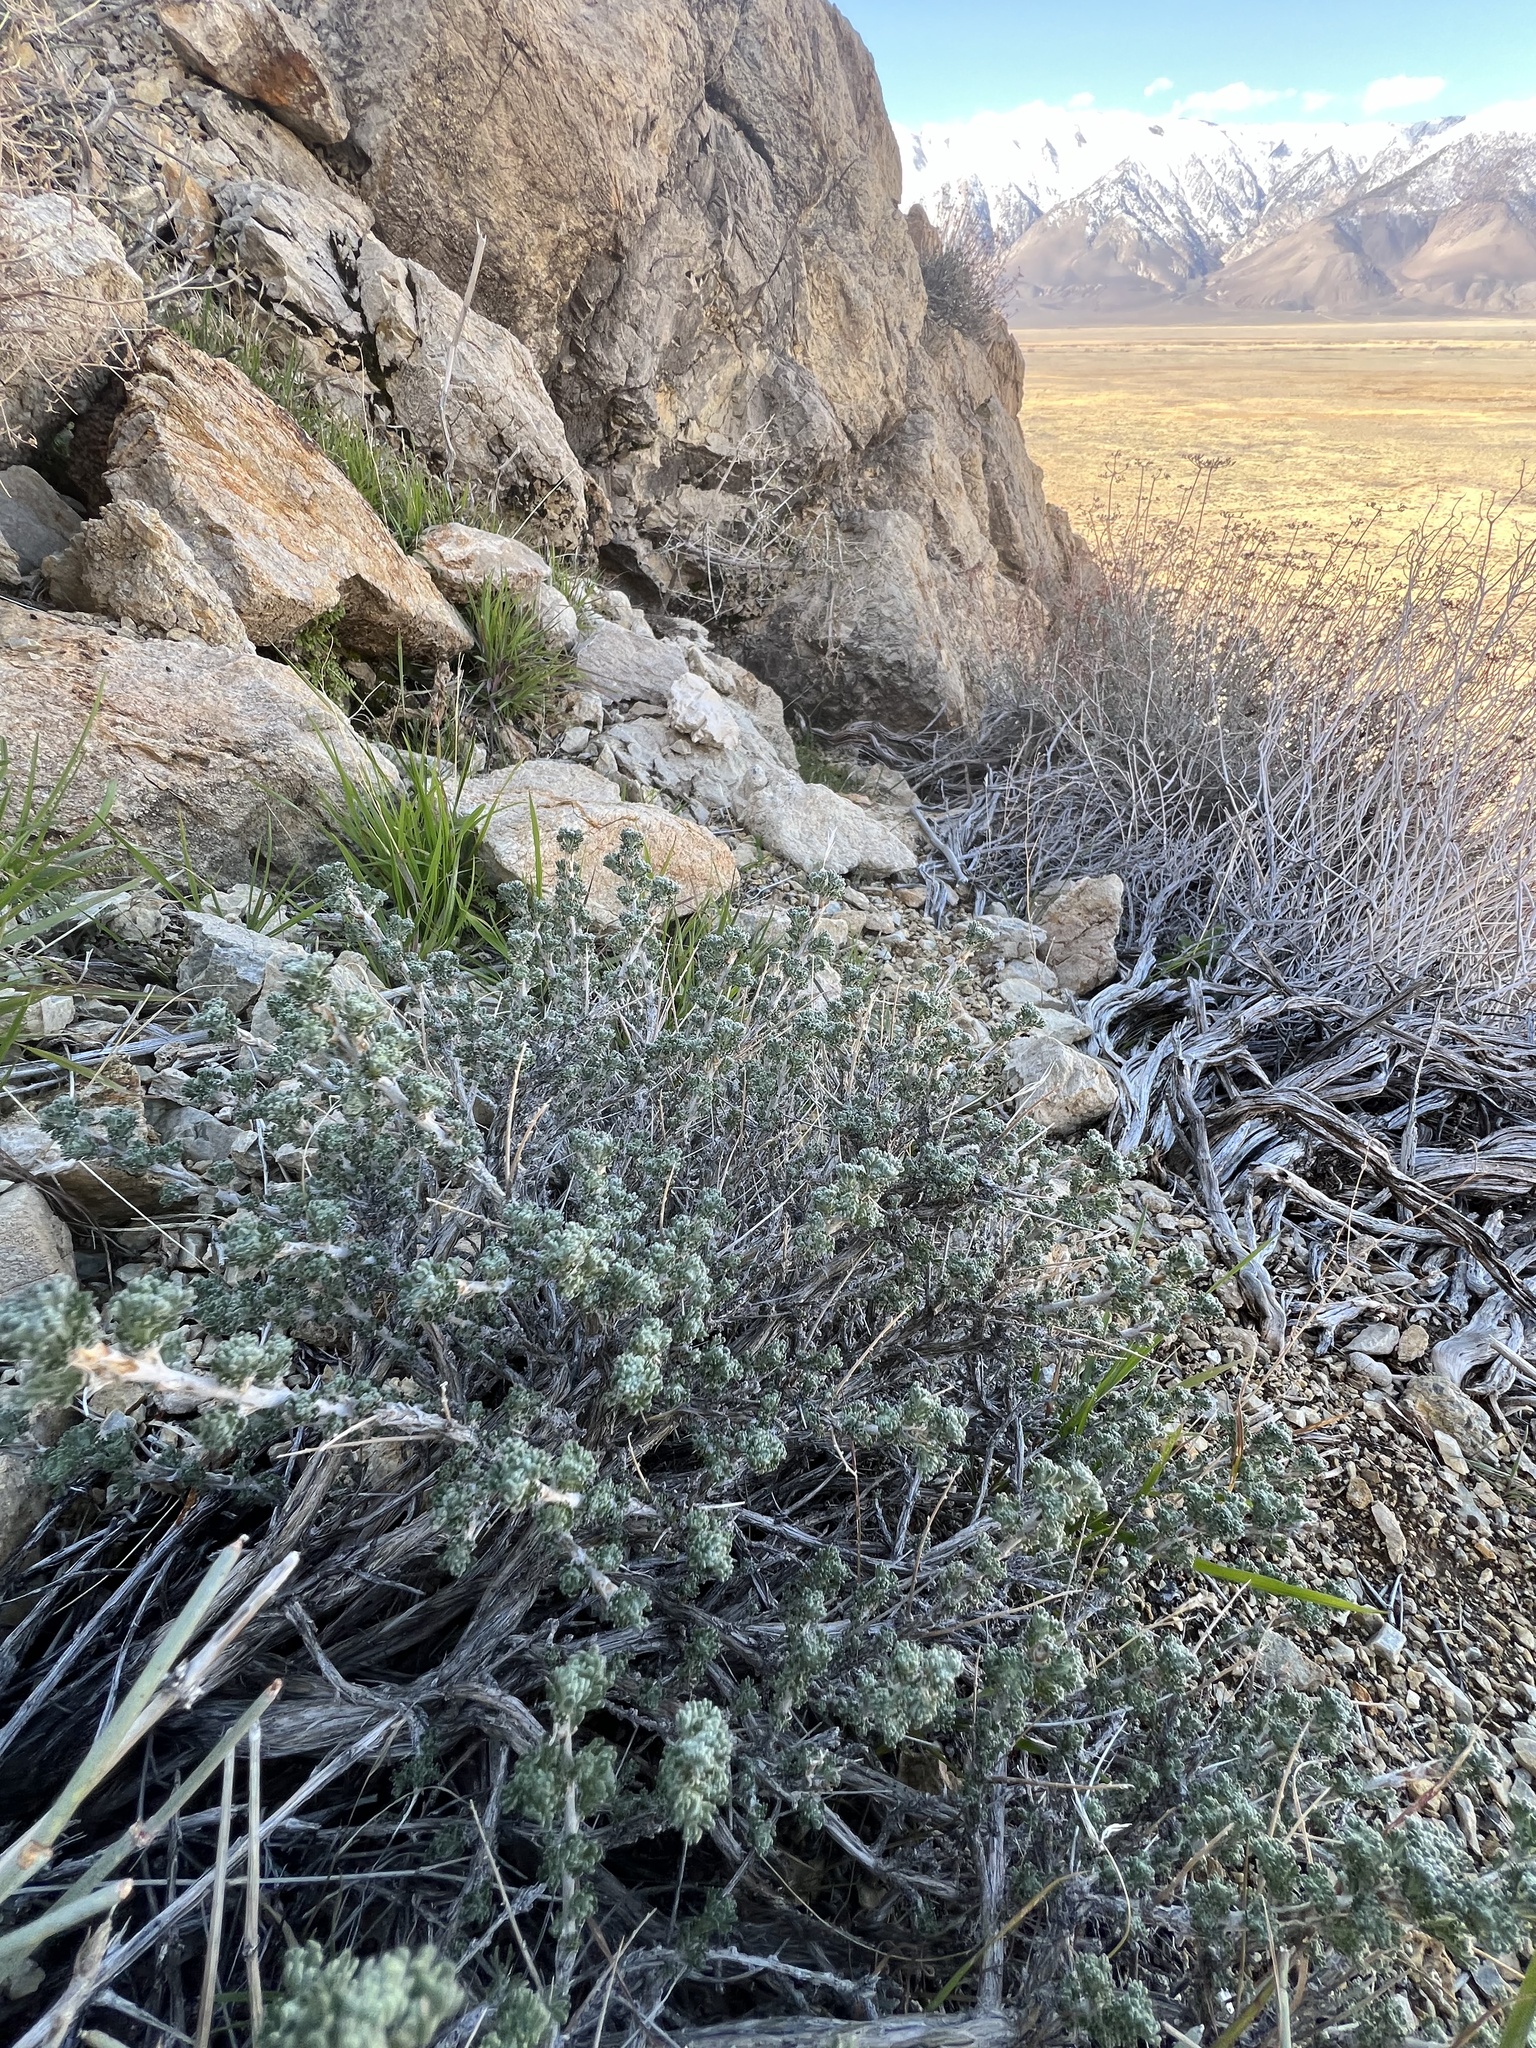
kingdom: Plantae
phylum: Tracheophyta
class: Magnoliopsida
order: Asterales
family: Asteraceae
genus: Artemisia
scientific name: Artemisia spinescens
